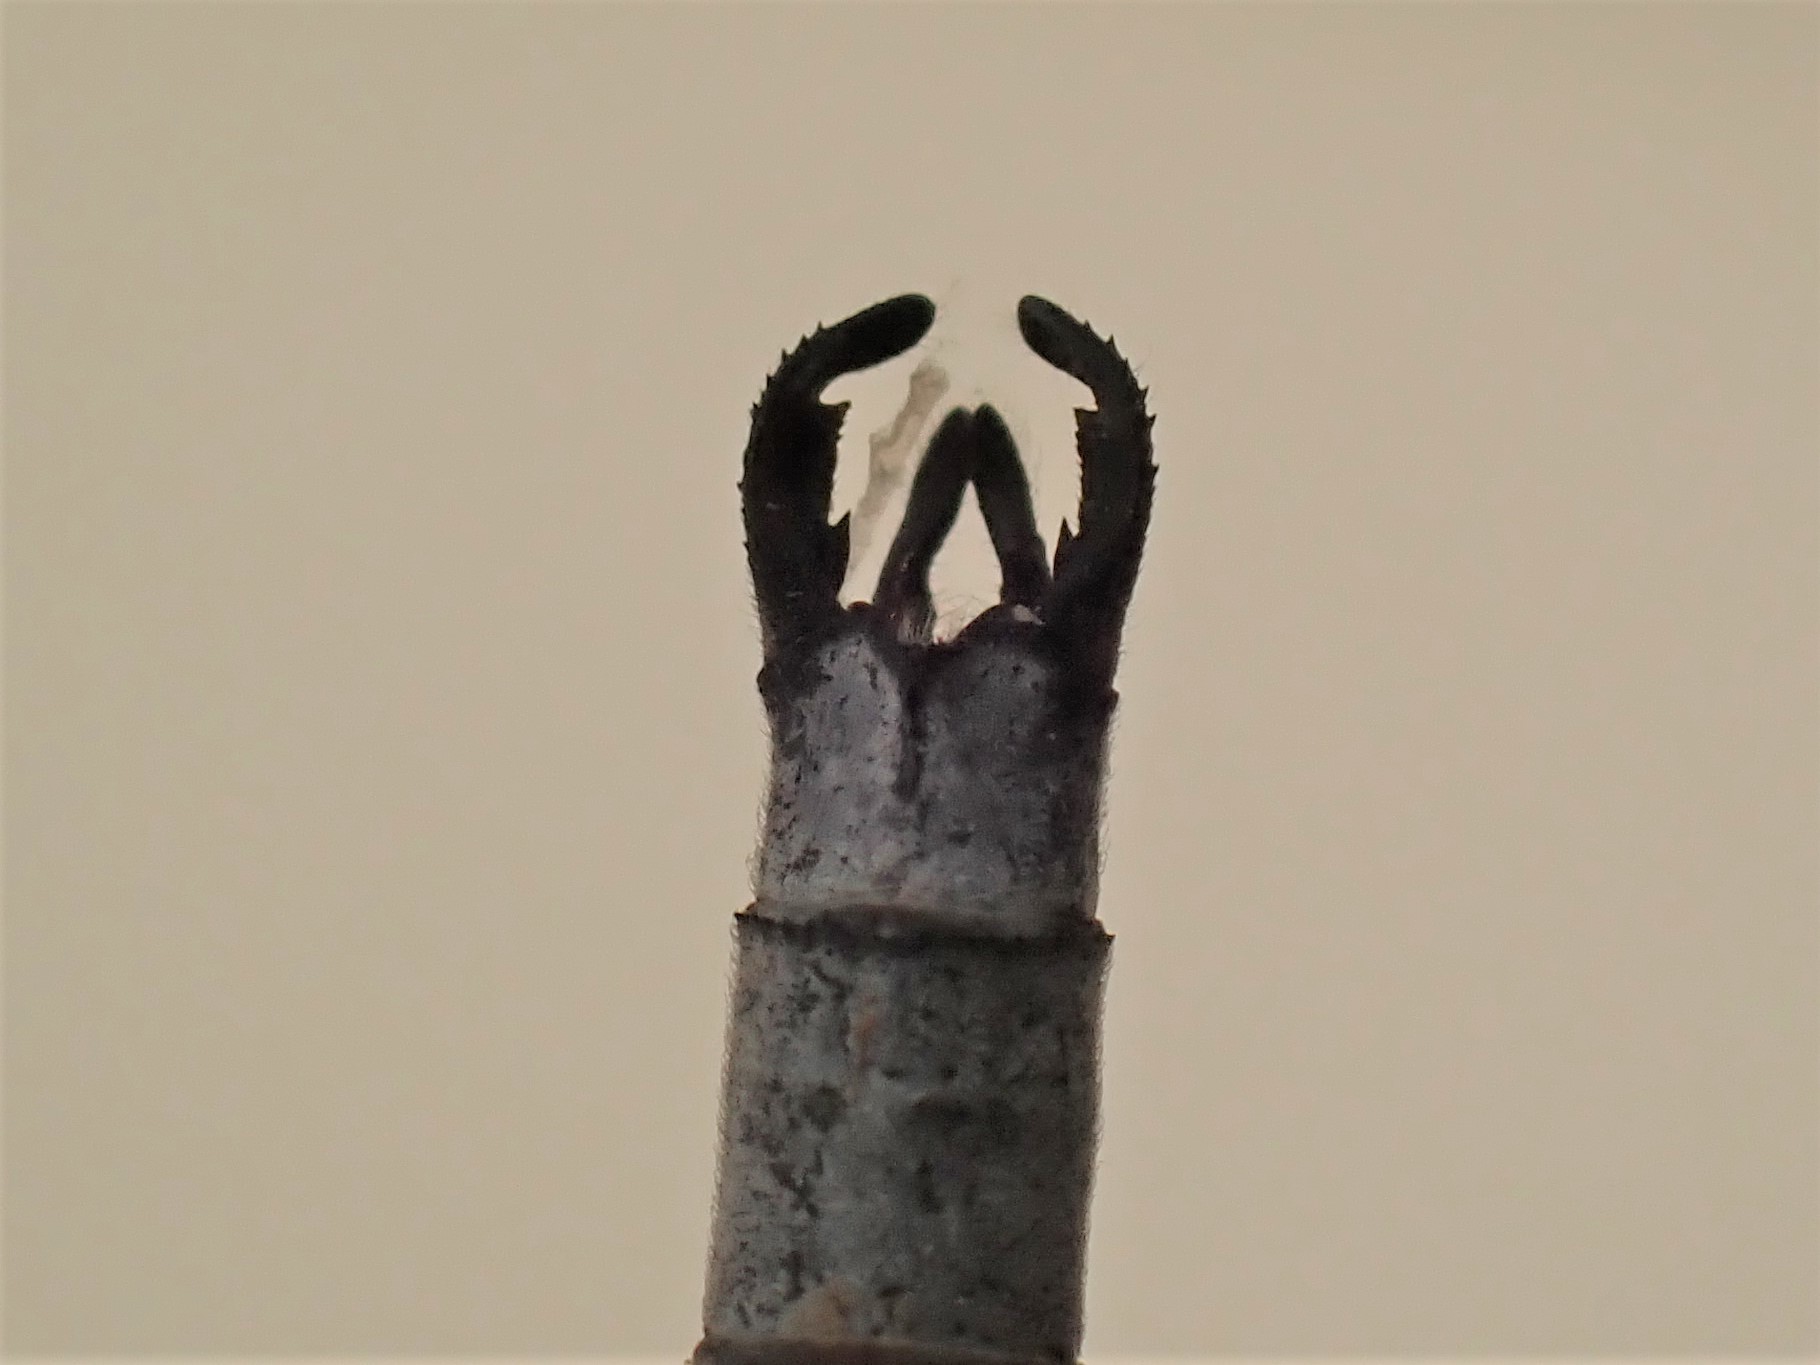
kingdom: Animalia
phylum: Arthropoda
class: Insecta
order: Odonata
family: Lestidae
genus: Lestes
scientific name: Lestes disjunctus
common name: Northern spreadwing
